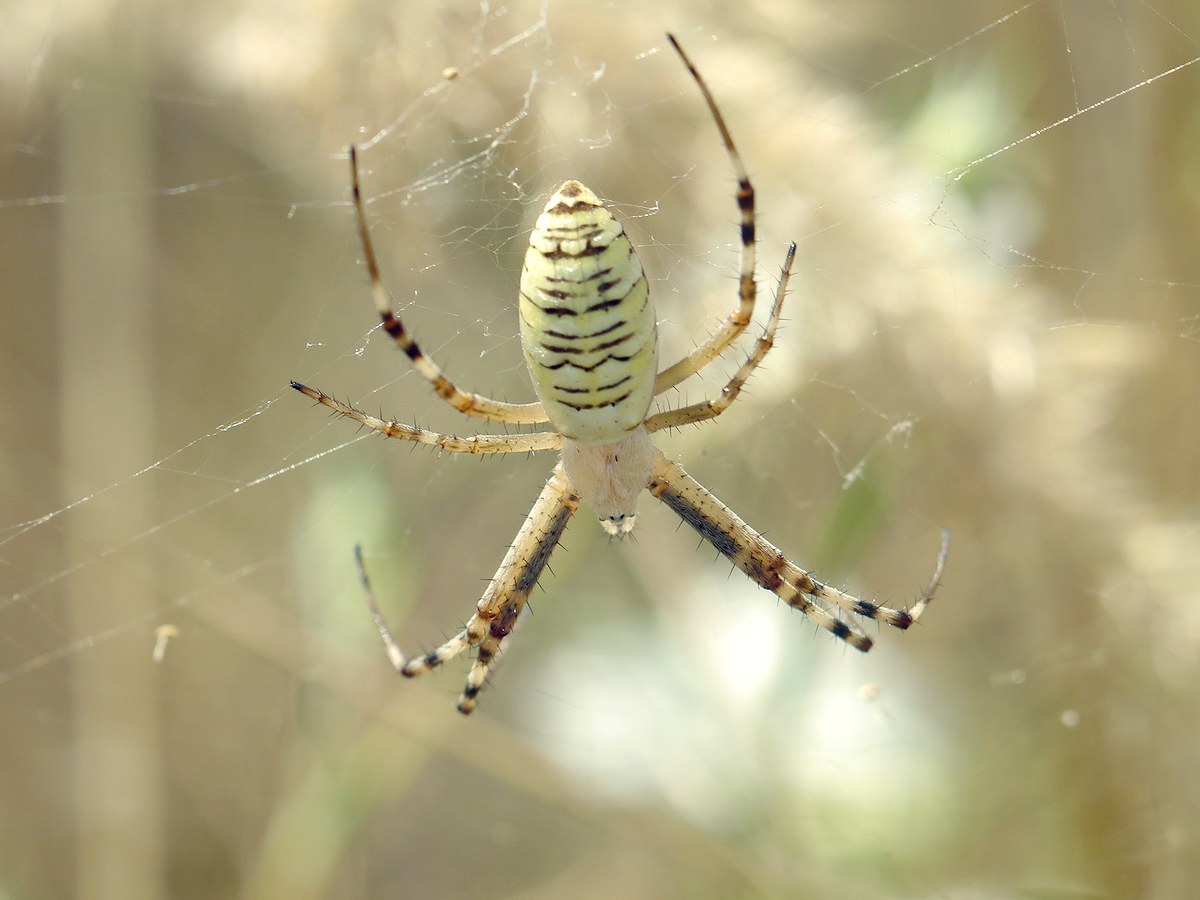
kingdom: Animalia
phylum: Arthropoda
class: Arachnida
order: Araneae
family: Araneidae
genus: Argiope
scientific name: Argiope bruennichi
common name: Wasp spider
